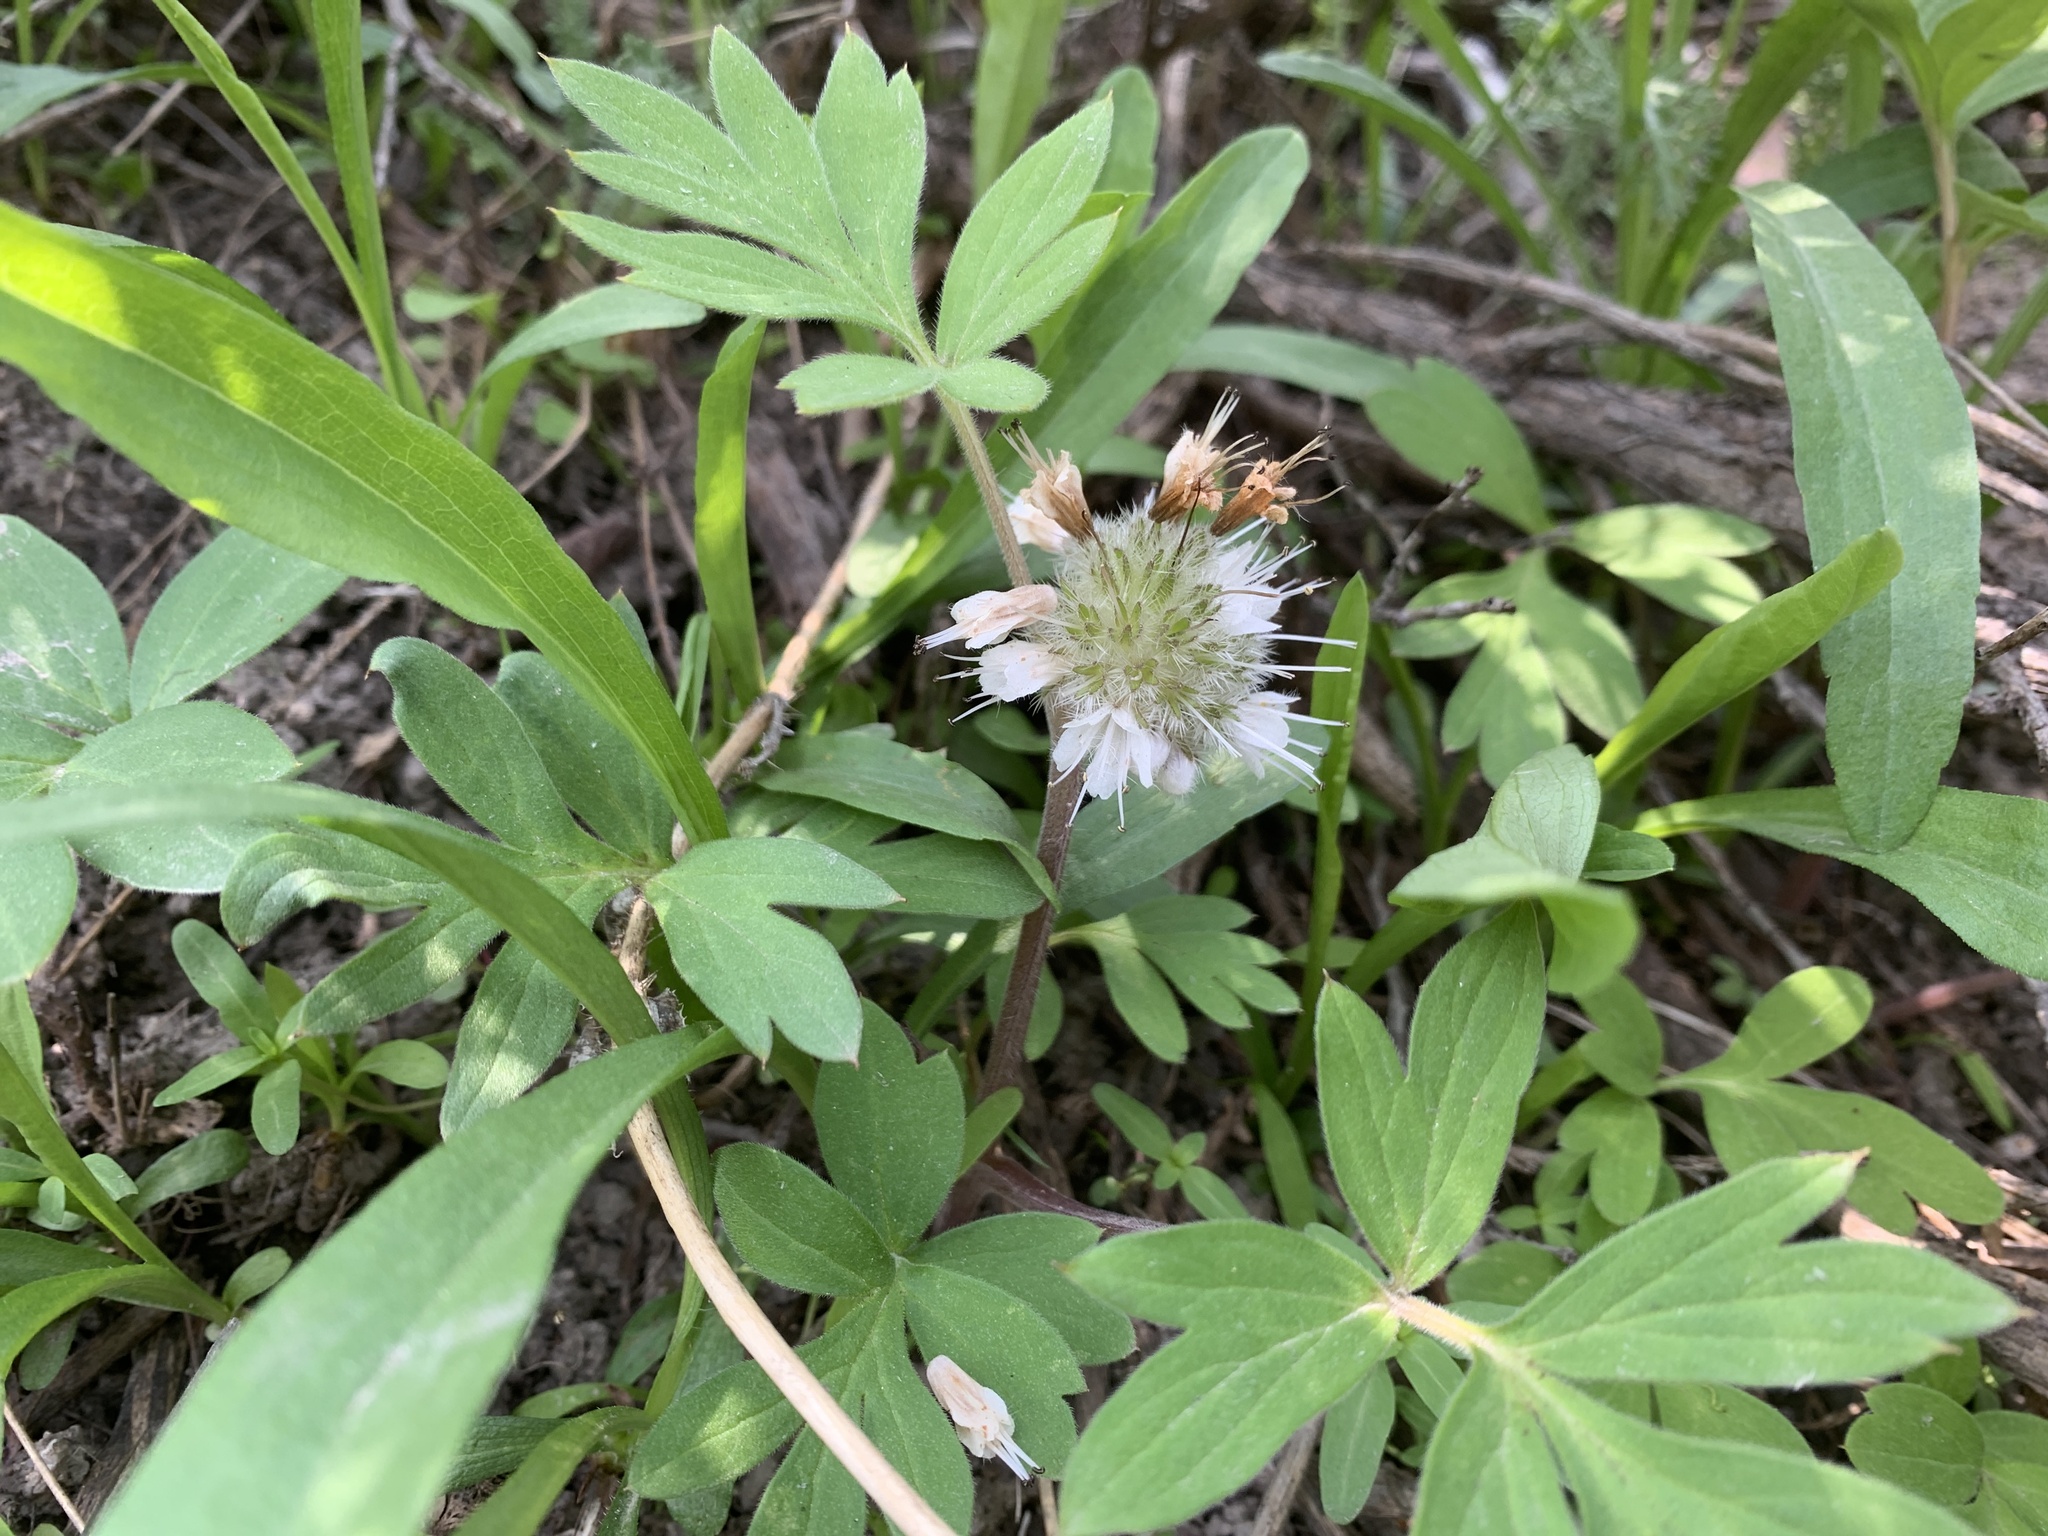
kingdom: Plantae
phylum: Tracheophyta
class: Magnoliopsida
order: Boraginales
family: Hydrophyllaceae
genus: Hydrophyllum
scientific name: Hydrophyllum capitatum
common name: Woollen-breeches
